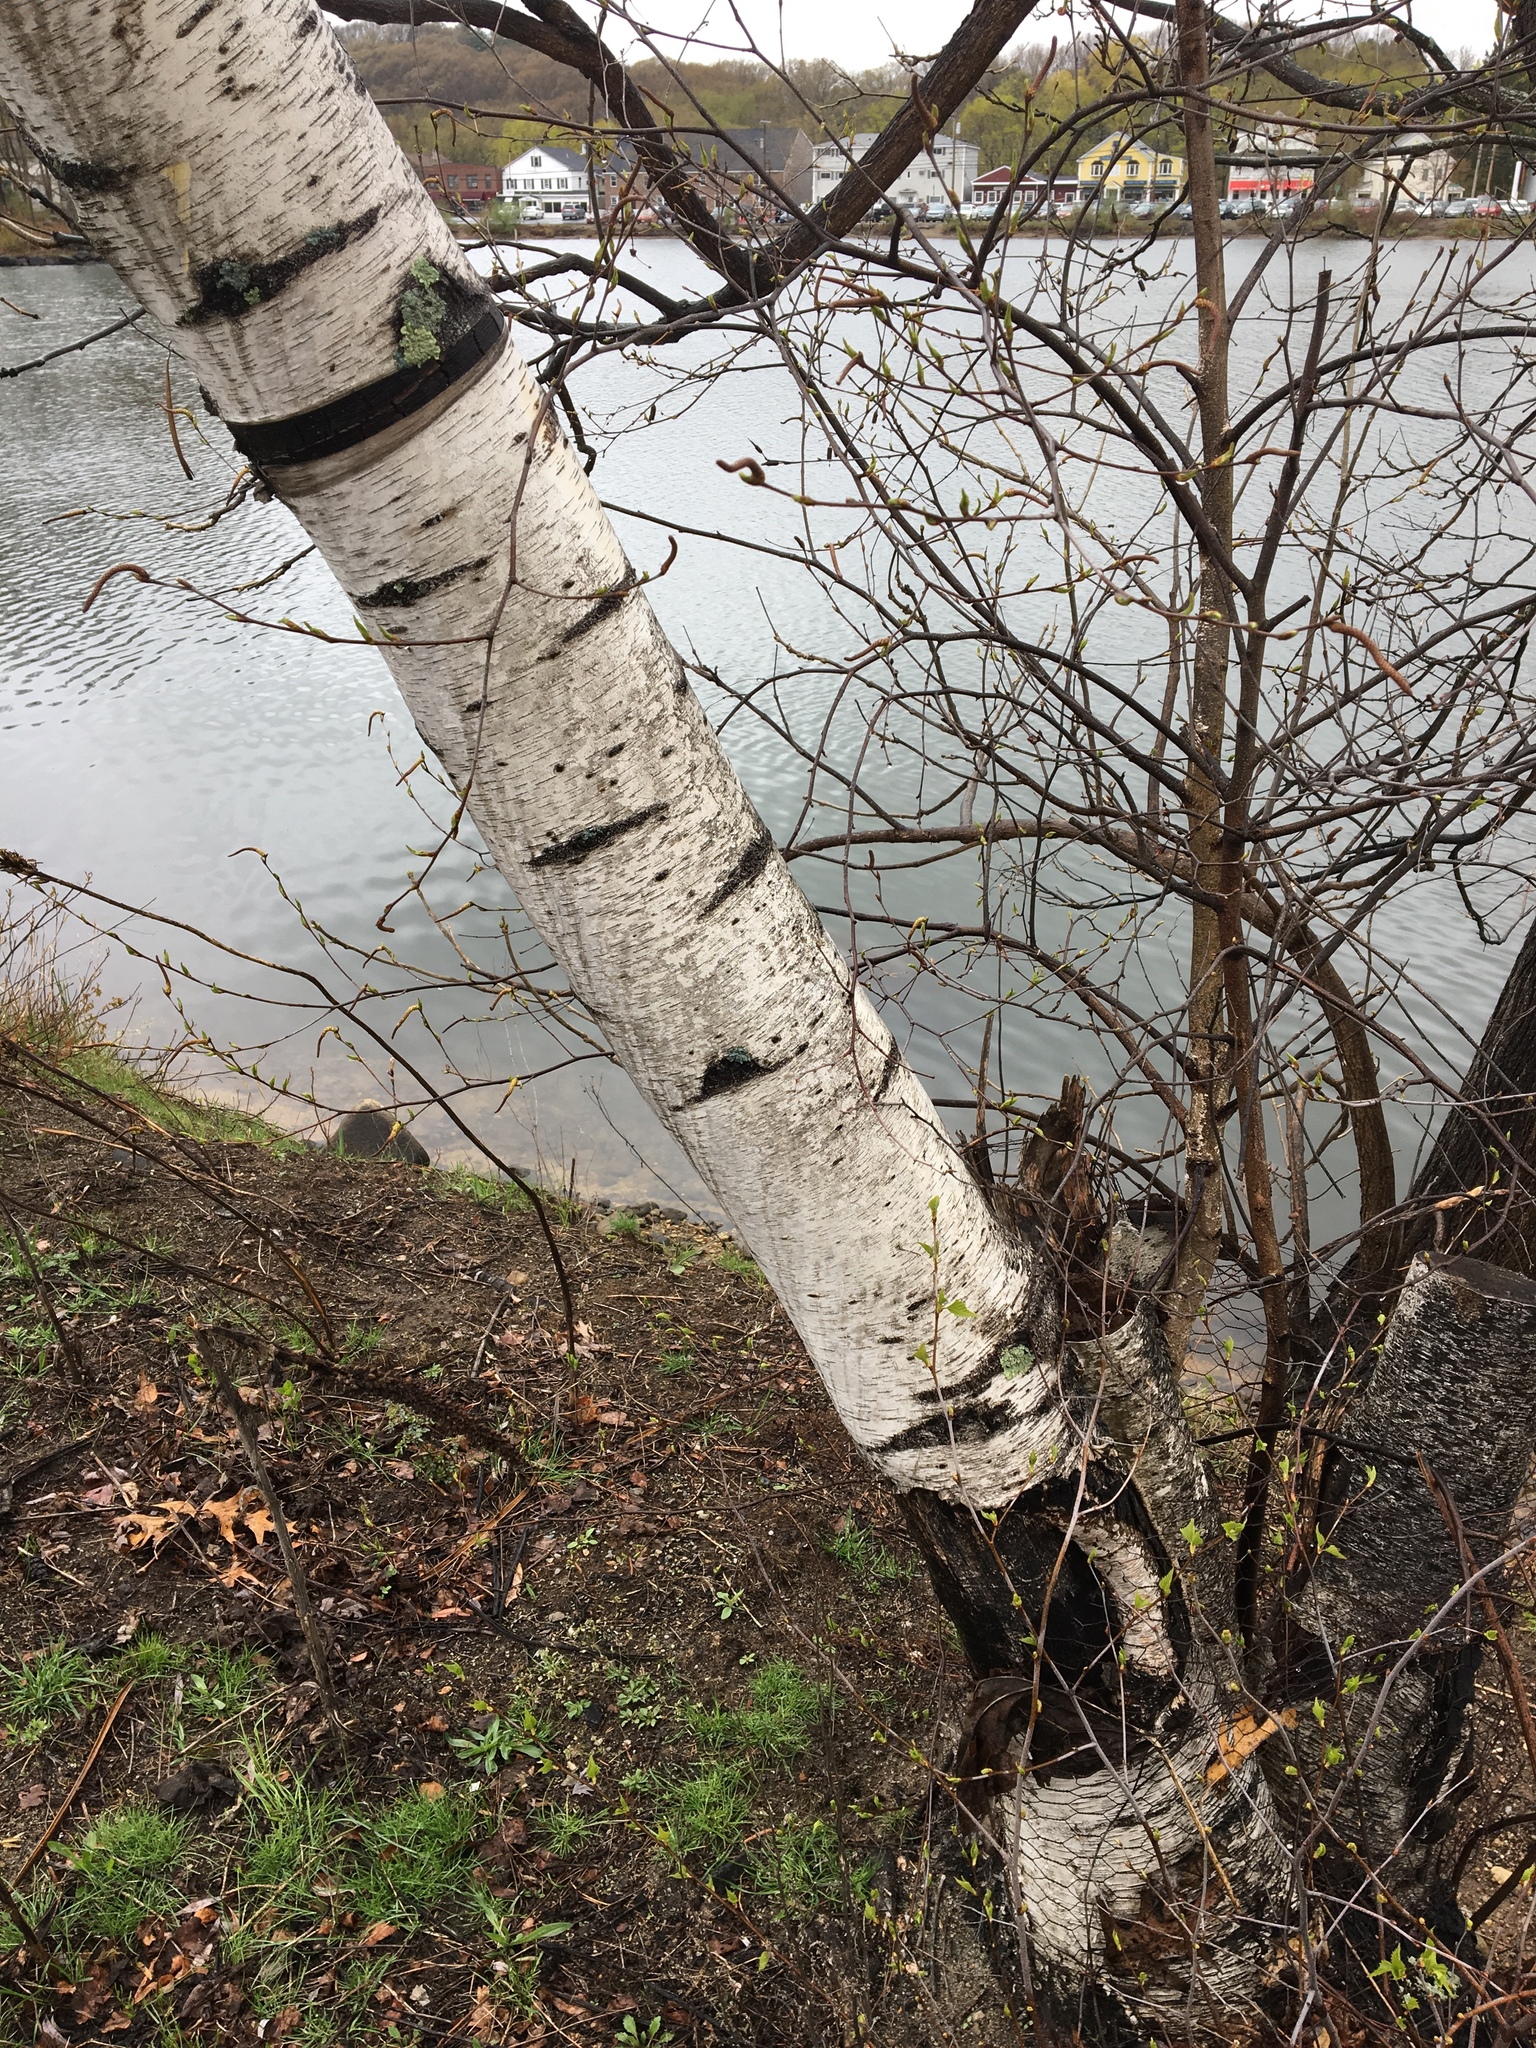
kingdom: Plantae
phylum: Tracheophyta
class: Magnoliopsida
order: Fagales
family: Betulaceae
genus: Betula
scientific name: Betula papyrifera
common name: Paper birch
